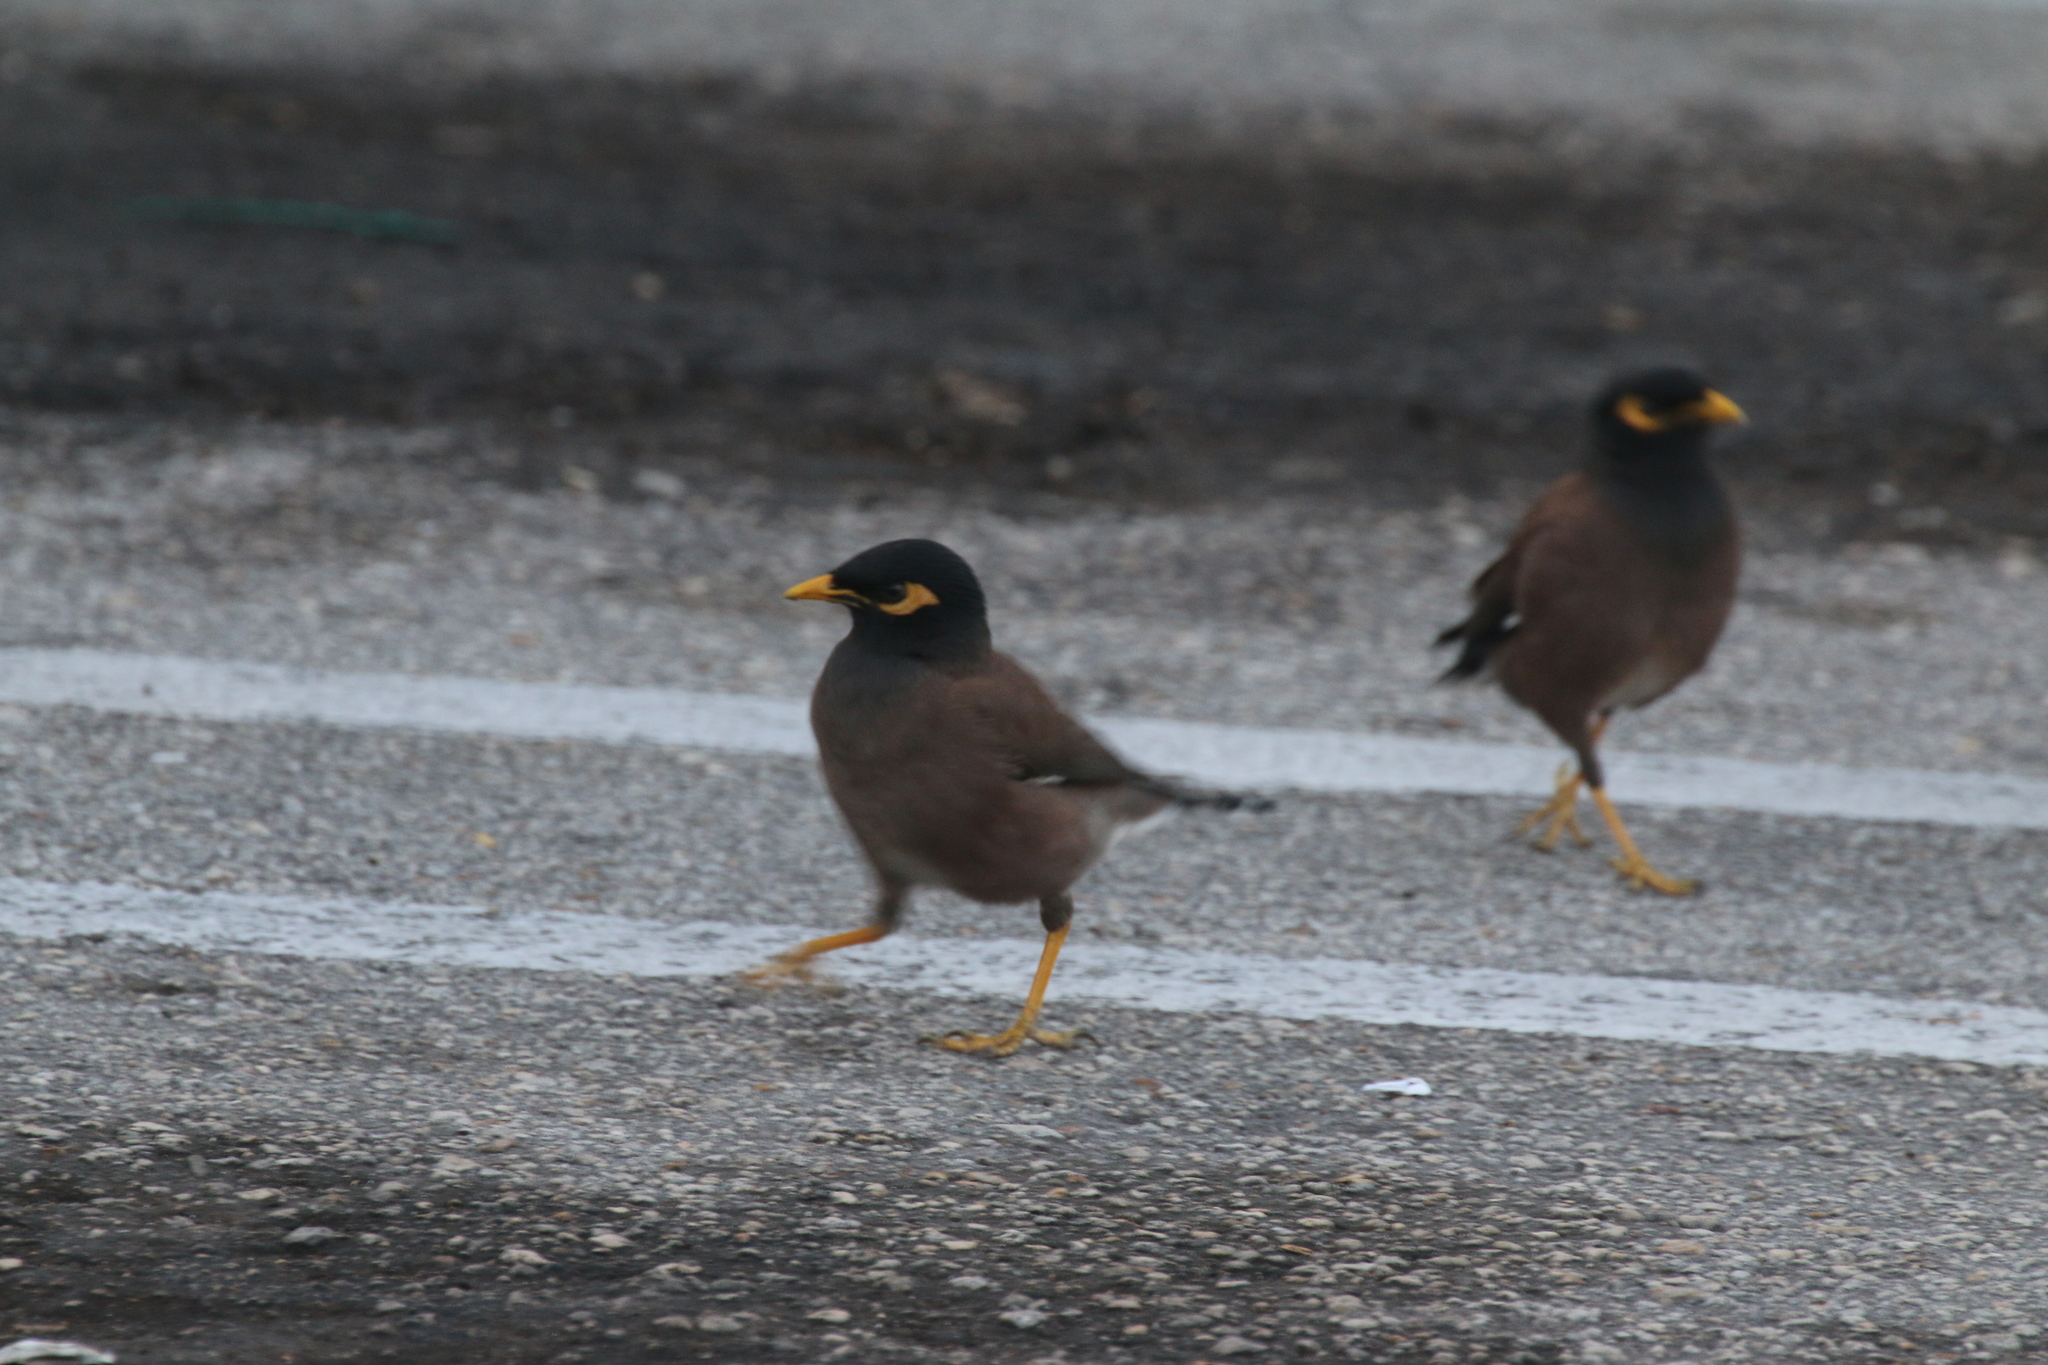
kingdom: Animalia
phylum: Chordata
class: Aves
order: Passeriformes
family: Sturnidae
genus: Acridotheres
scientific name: Acridotheres tristis
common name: Common myna
